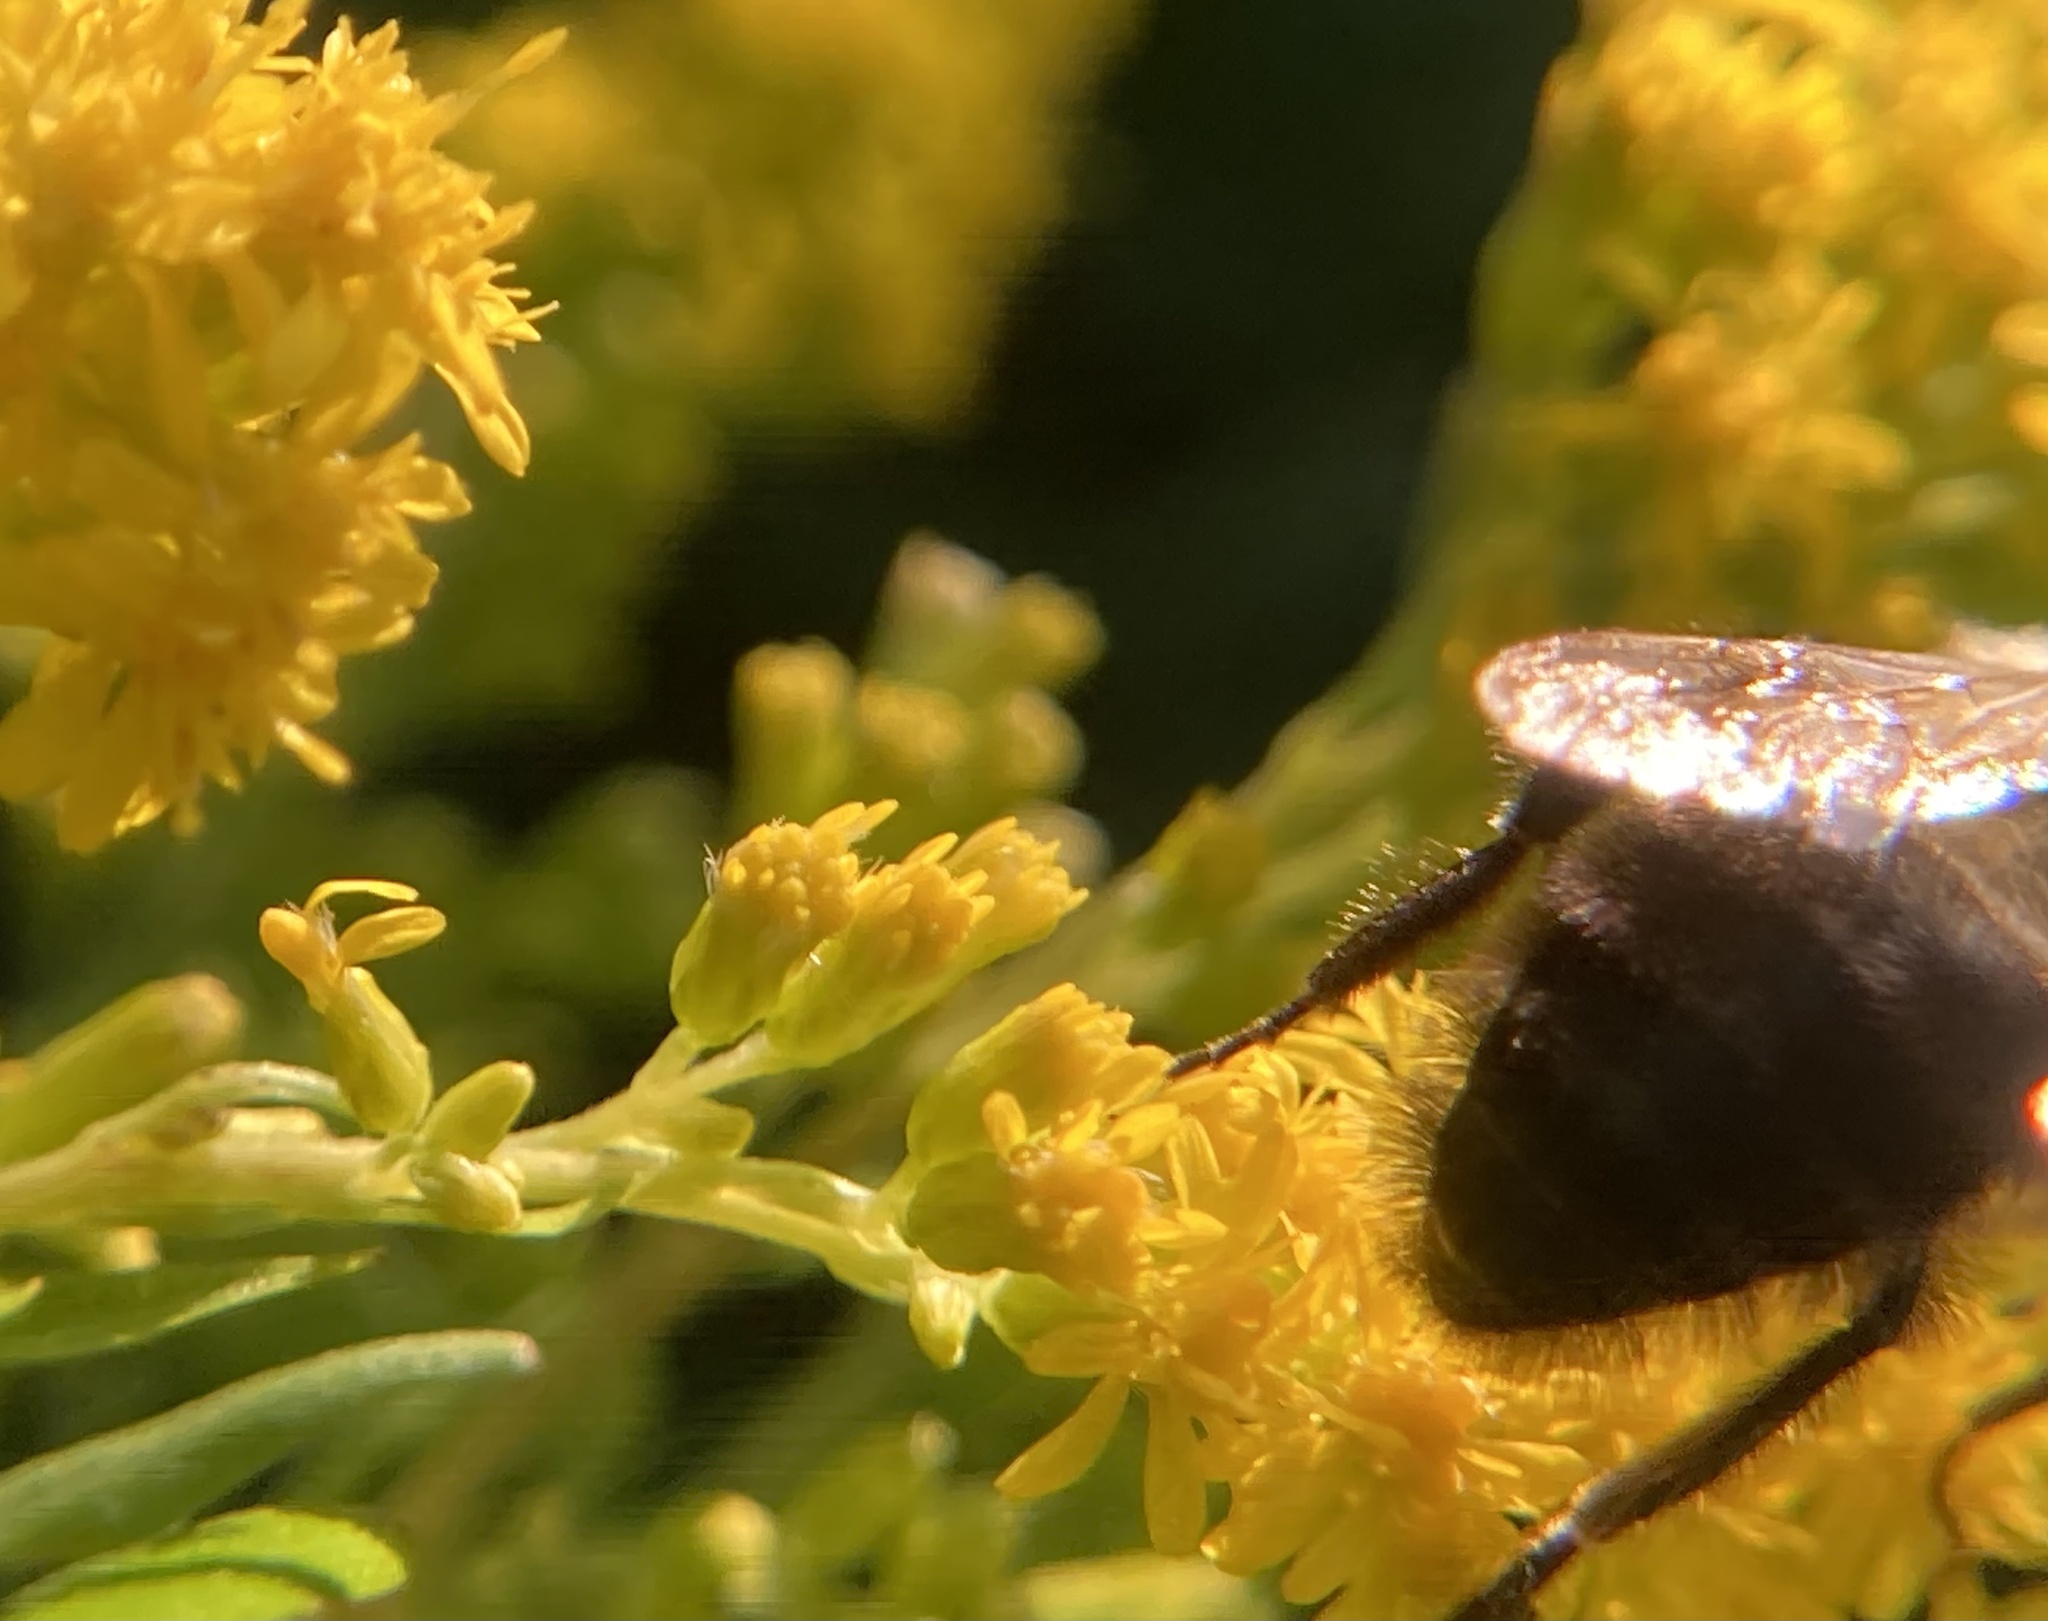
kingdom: Animalia
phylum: Arthropoda
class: Insecta
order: Hymenoptera
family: Apidae
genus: Bombus
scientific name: Bombus impatiens
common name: Common eastern bumble bee
